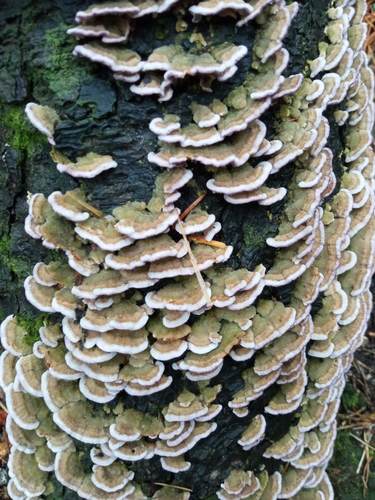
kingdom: Fungi
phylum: Basidiomycota
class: Agaricomycetes
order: Hymenochaetales
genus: Trichaptum
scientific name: Trichaptum abietinum
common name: Purplepore bracket
